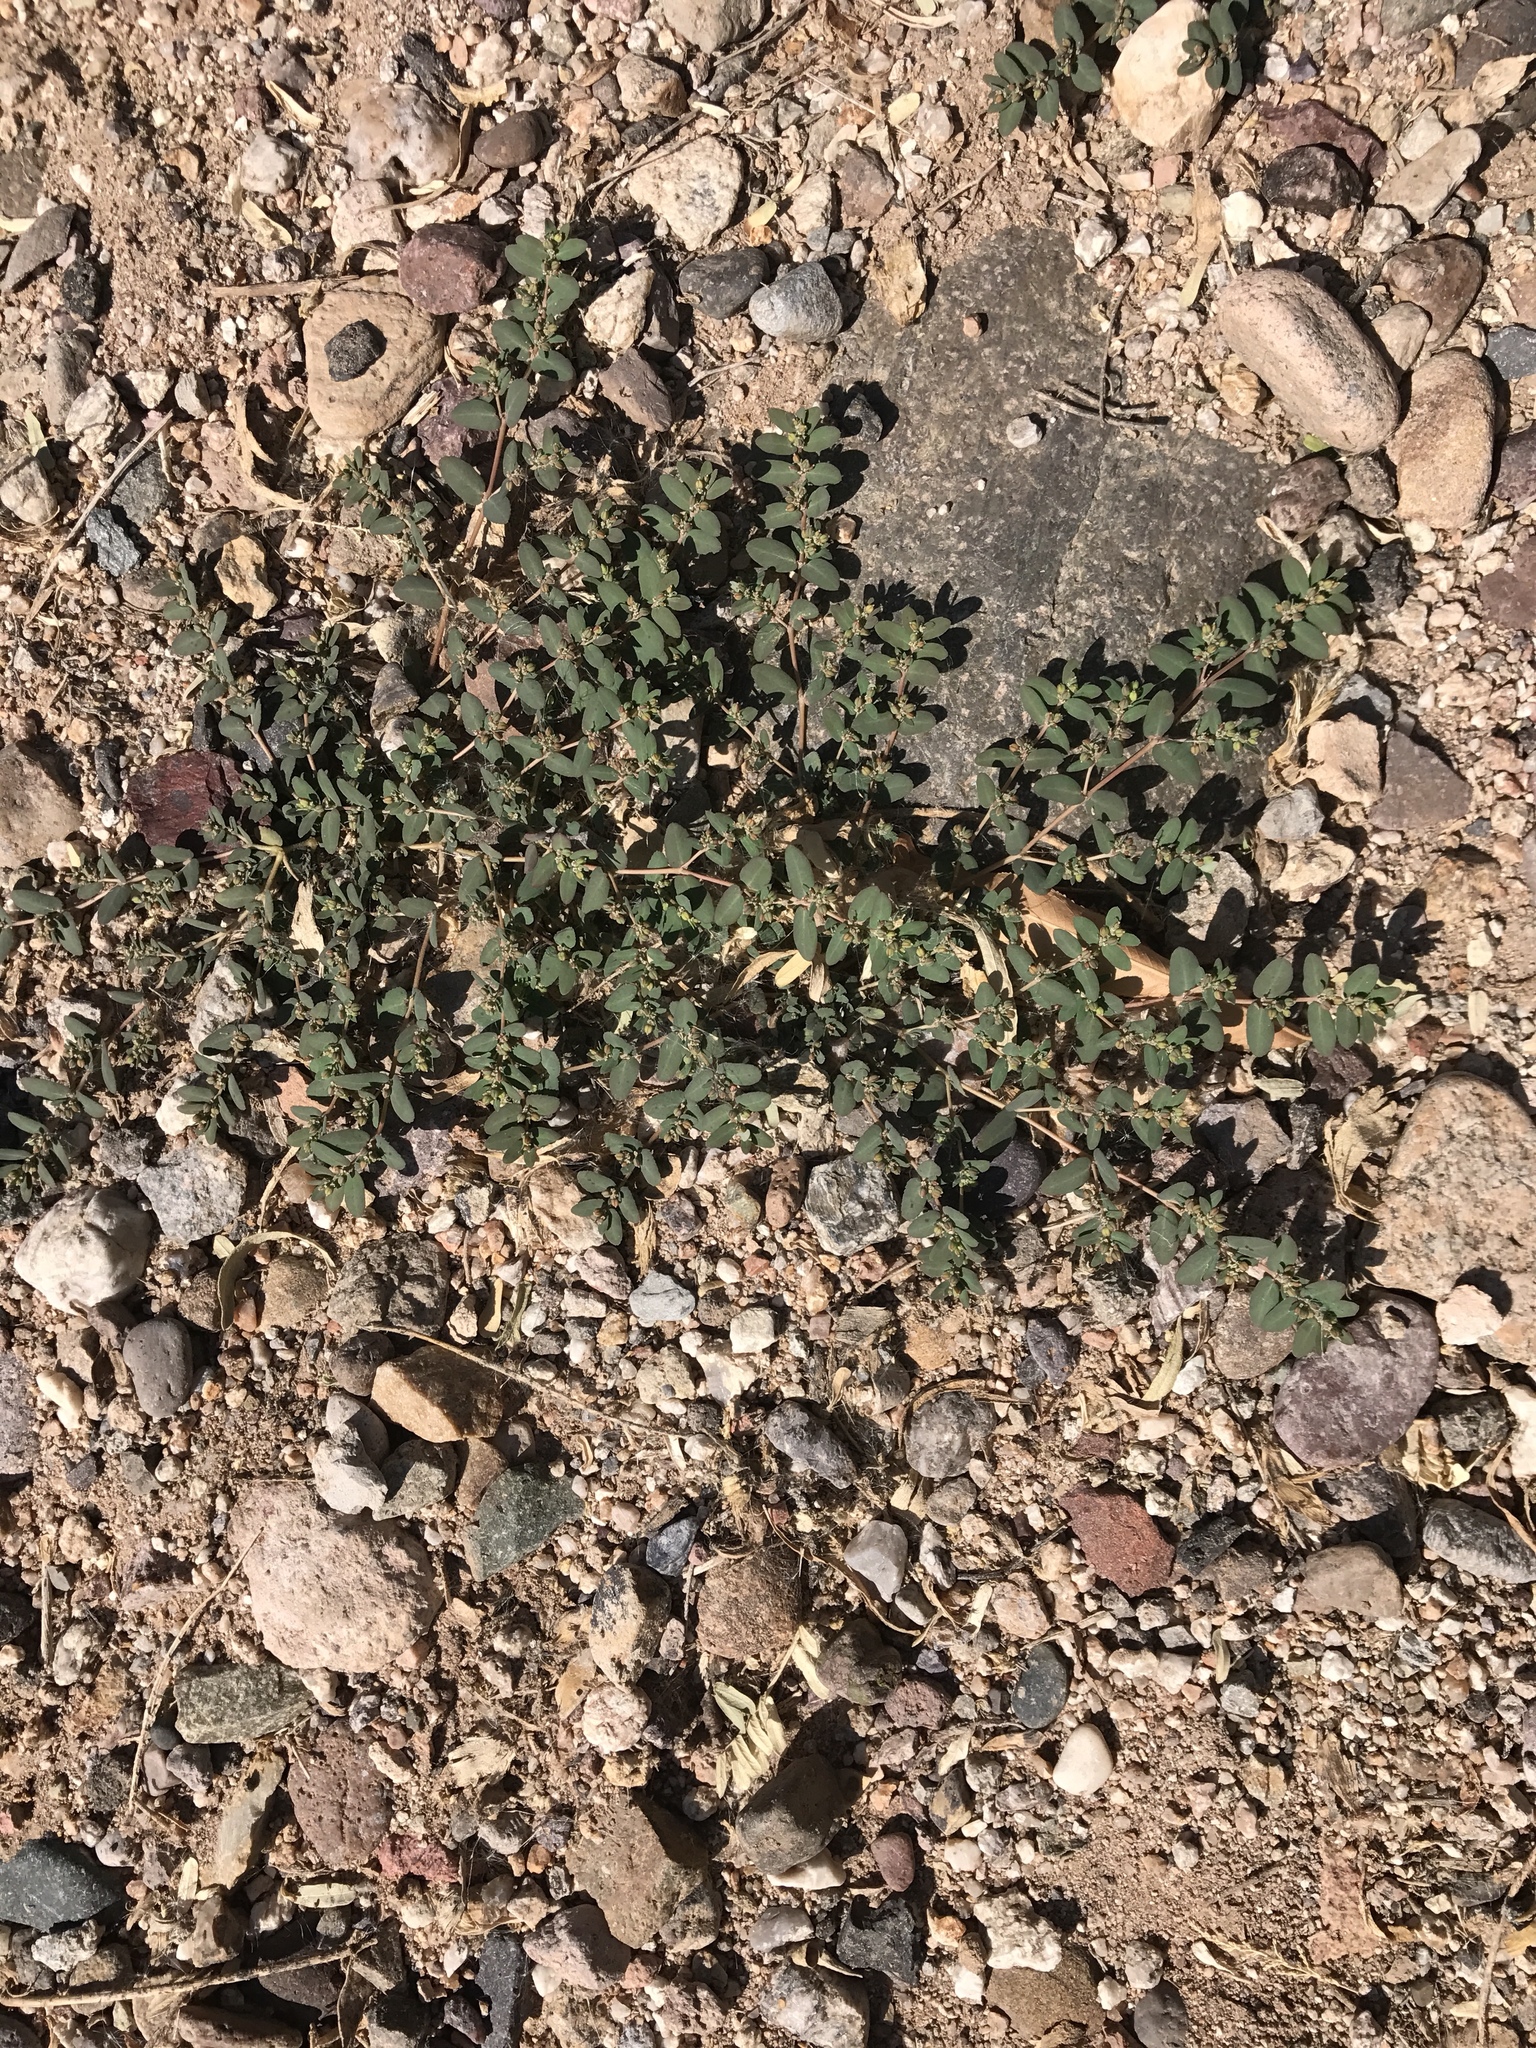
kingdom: Plantae
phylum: Tracheophyta
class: Magnoliopsida
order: Malpighiales
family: Euphorbiaceae
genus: Euphorbia
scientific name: Euphorbia abramsiana
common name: Abram's spurge
